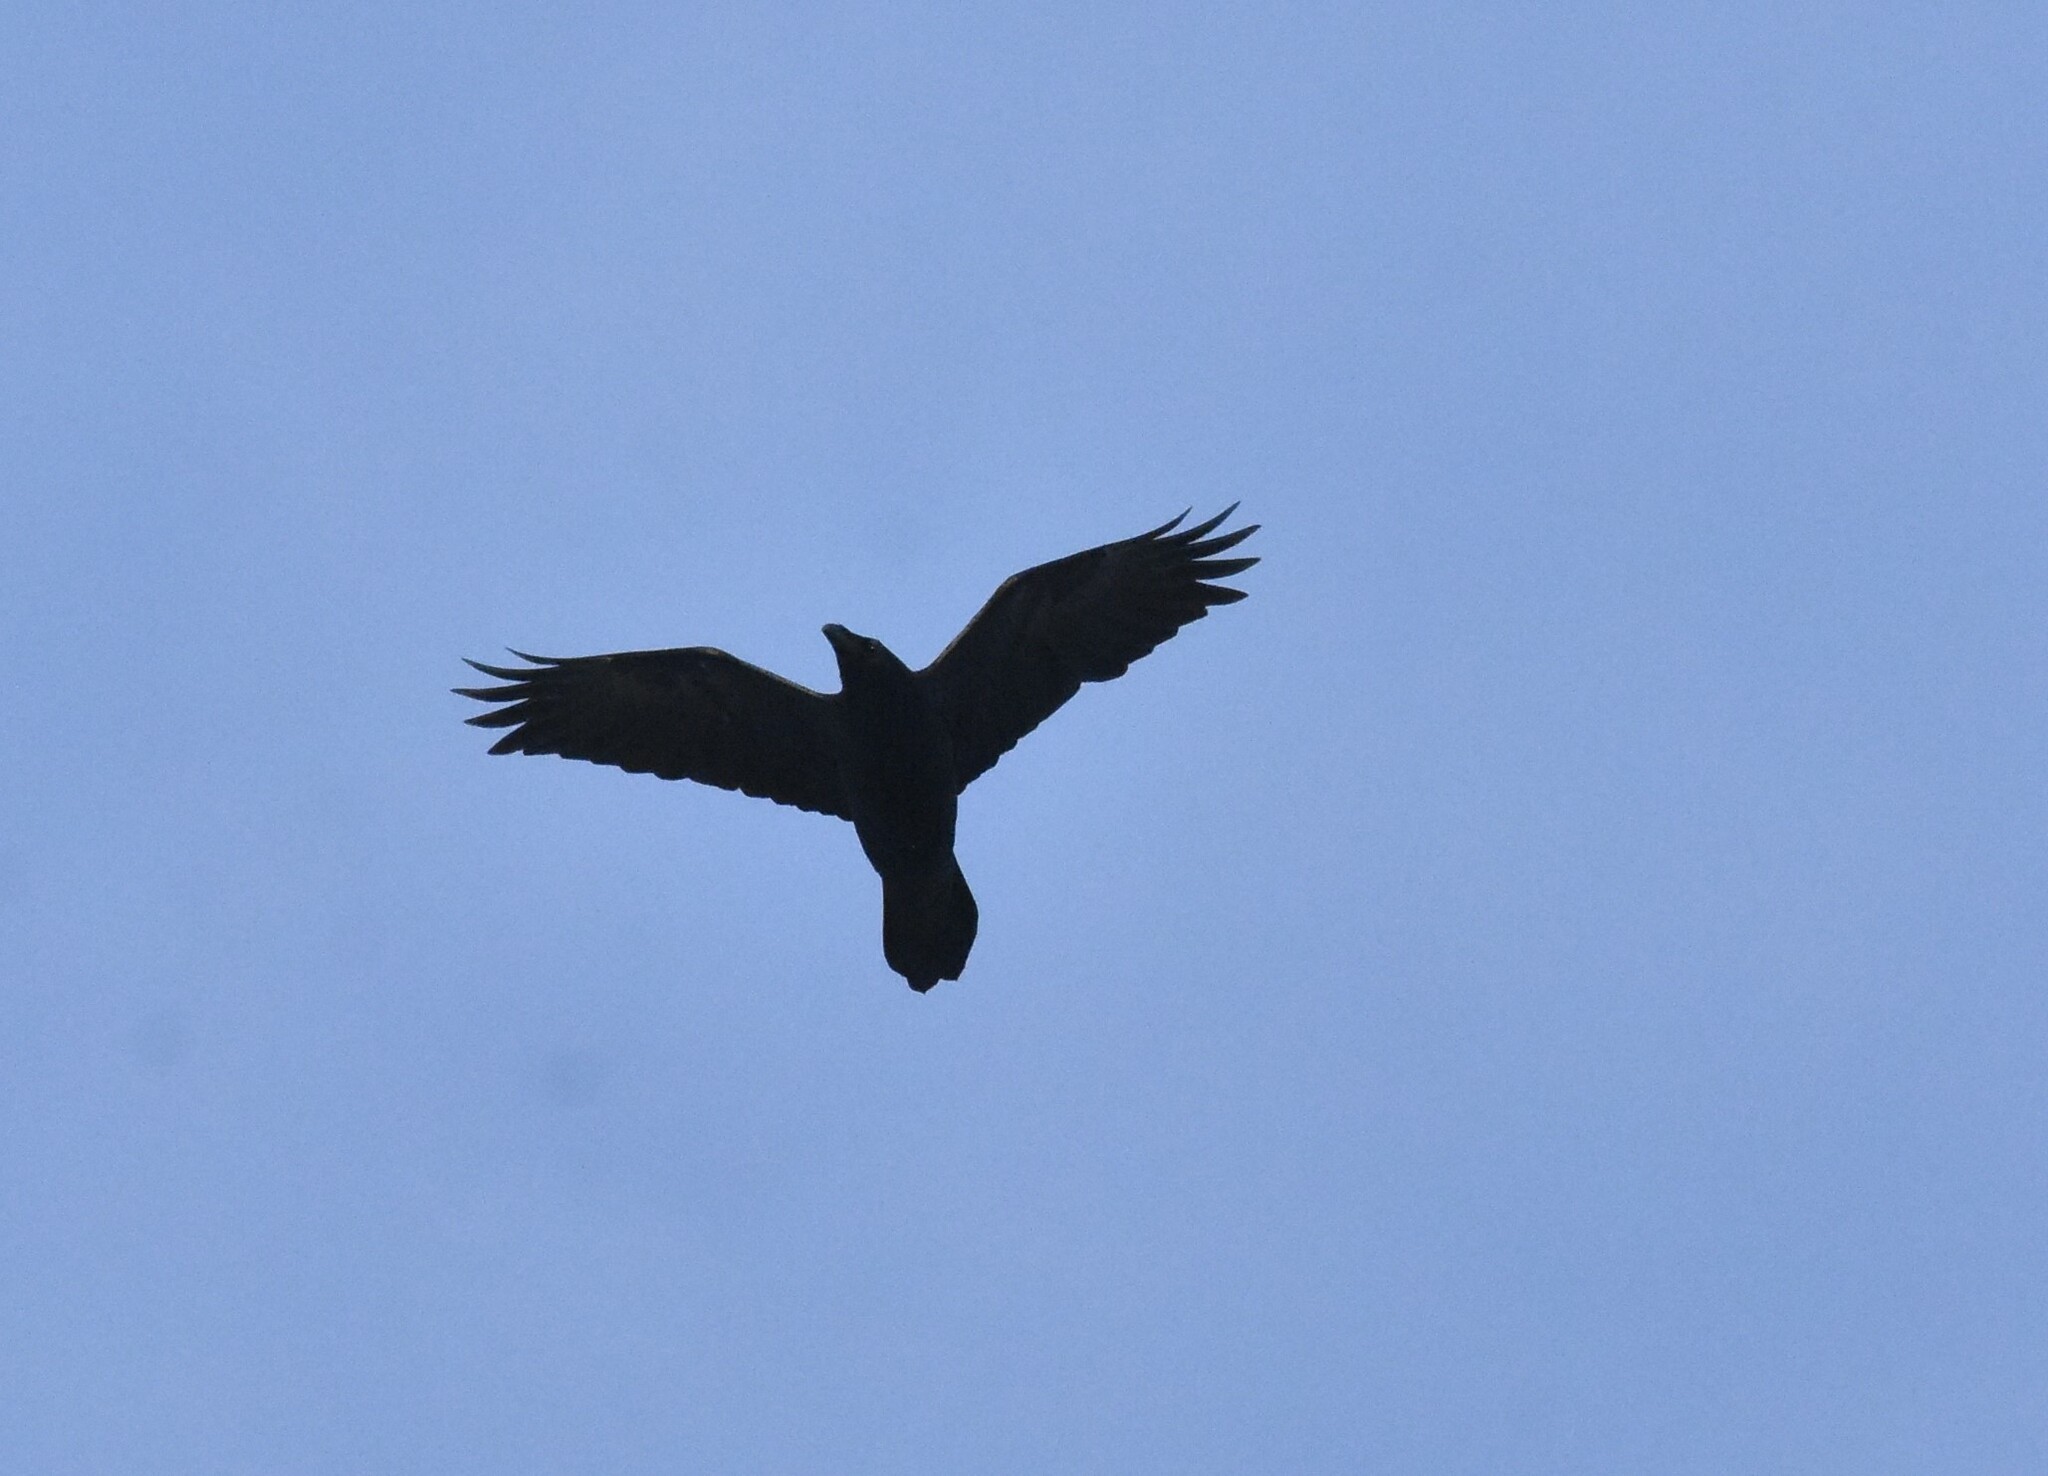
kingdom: Animalia
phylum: Chordata
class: Aves
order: Passeriformes
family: Corvidae
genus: Corvus
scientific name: Corvus corax
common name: Common raven
